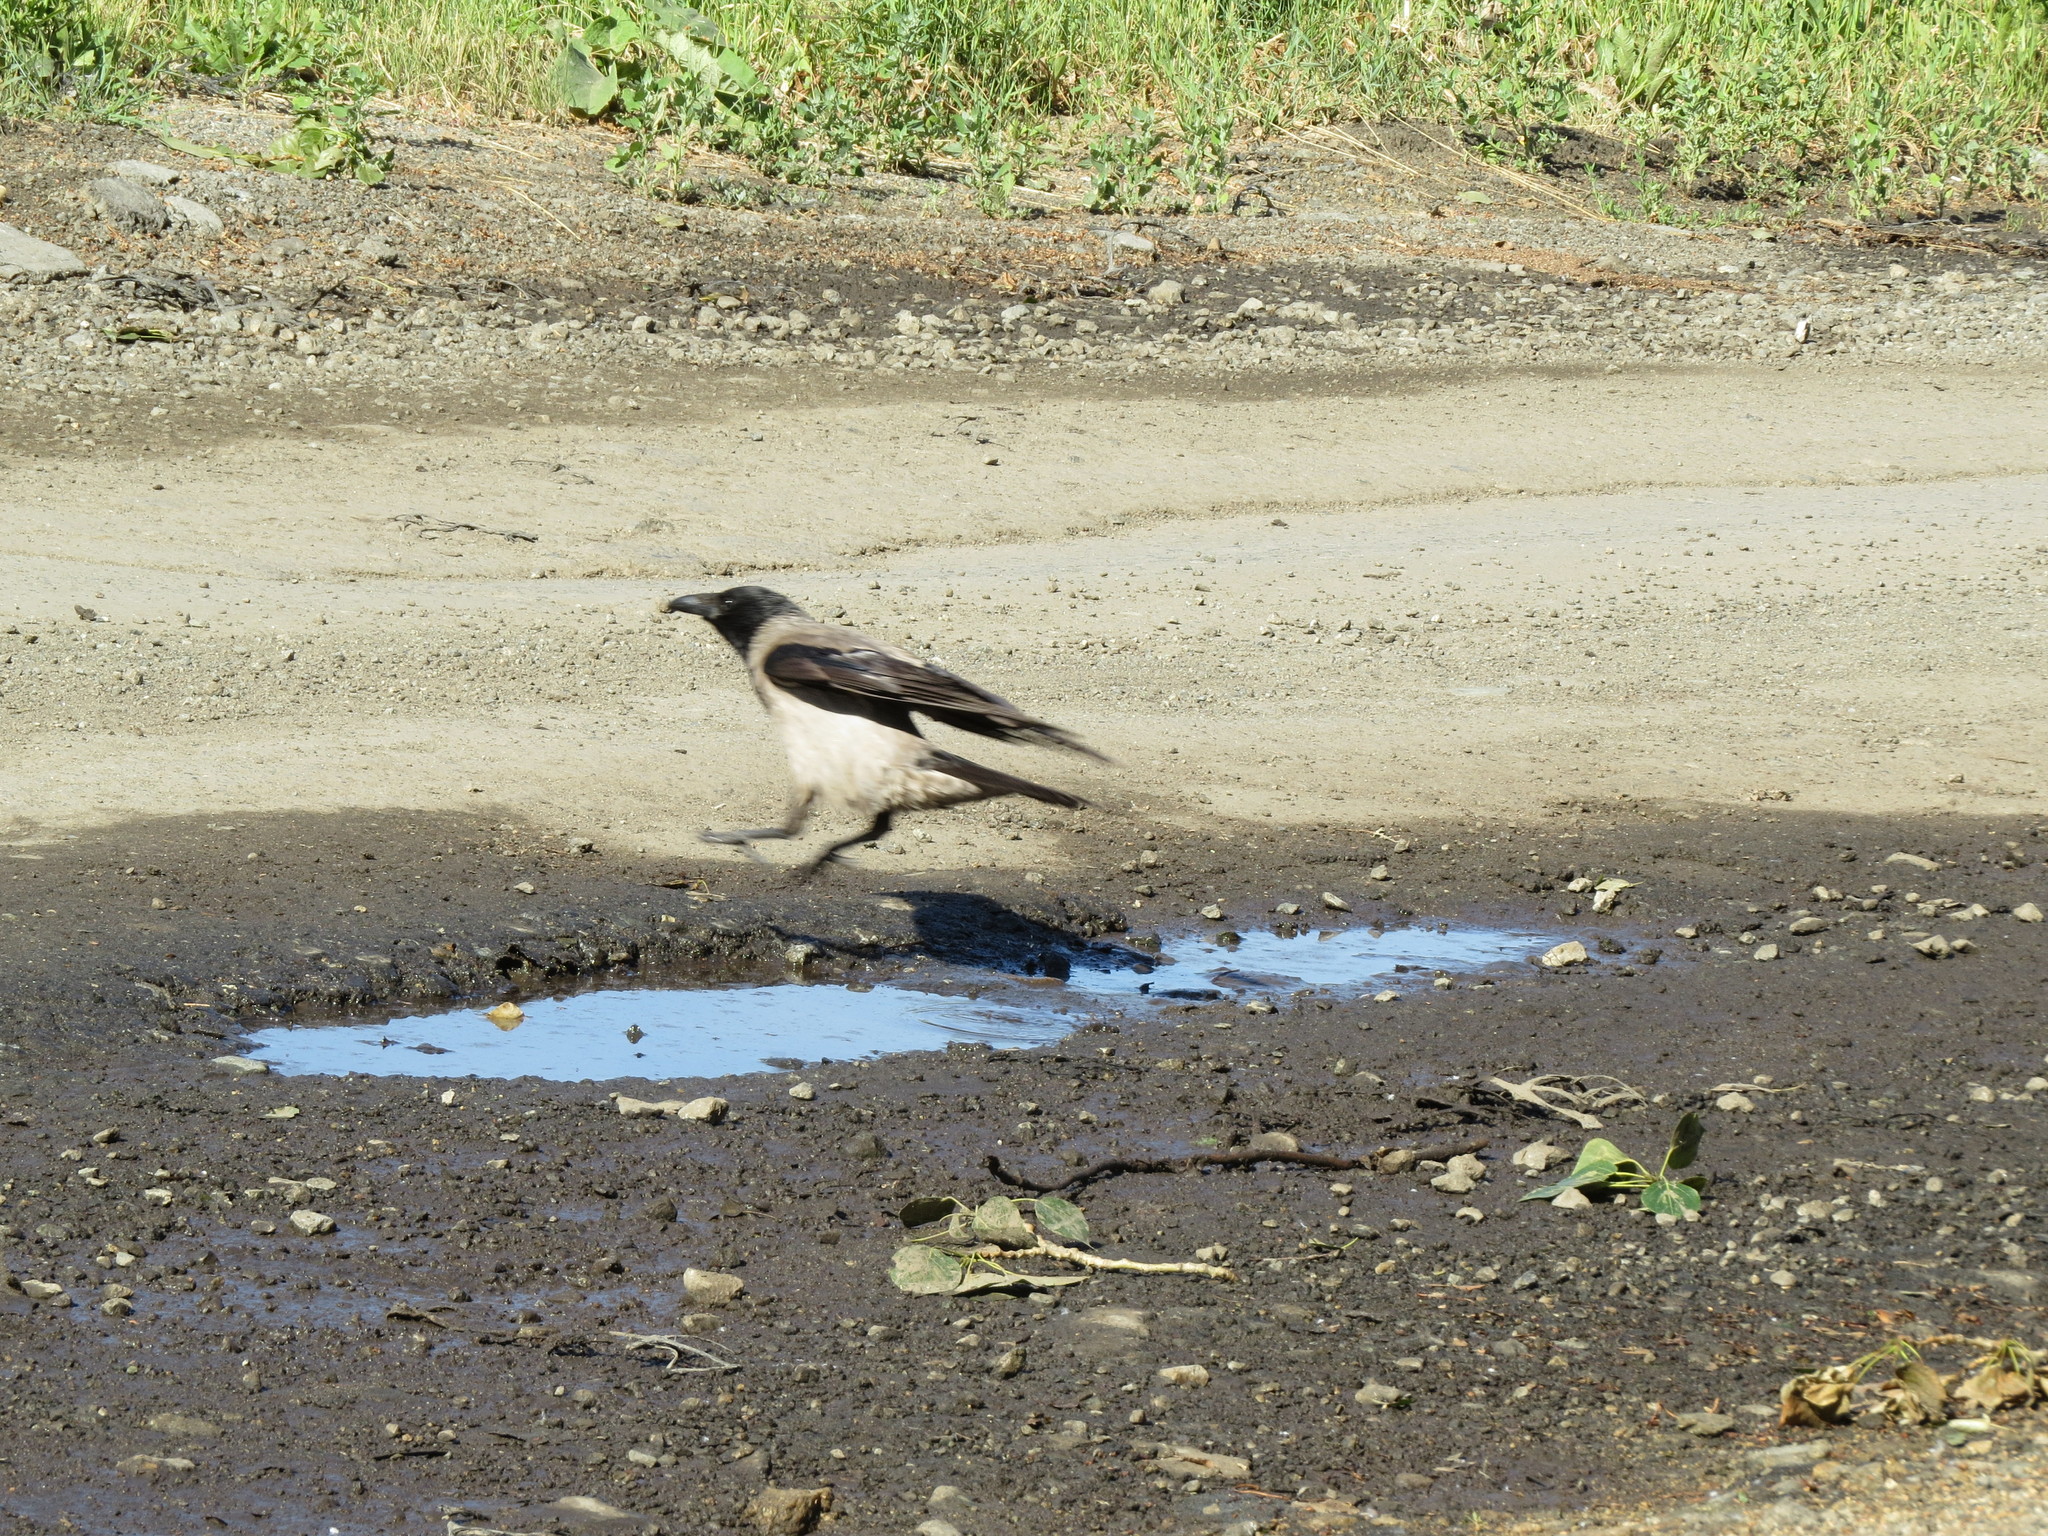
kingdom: Animalia
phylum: Chordata
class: Aves
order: Passeriformes
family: Corvidae
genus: Corvus
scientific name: Corvus cornix
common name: Hooded crow
